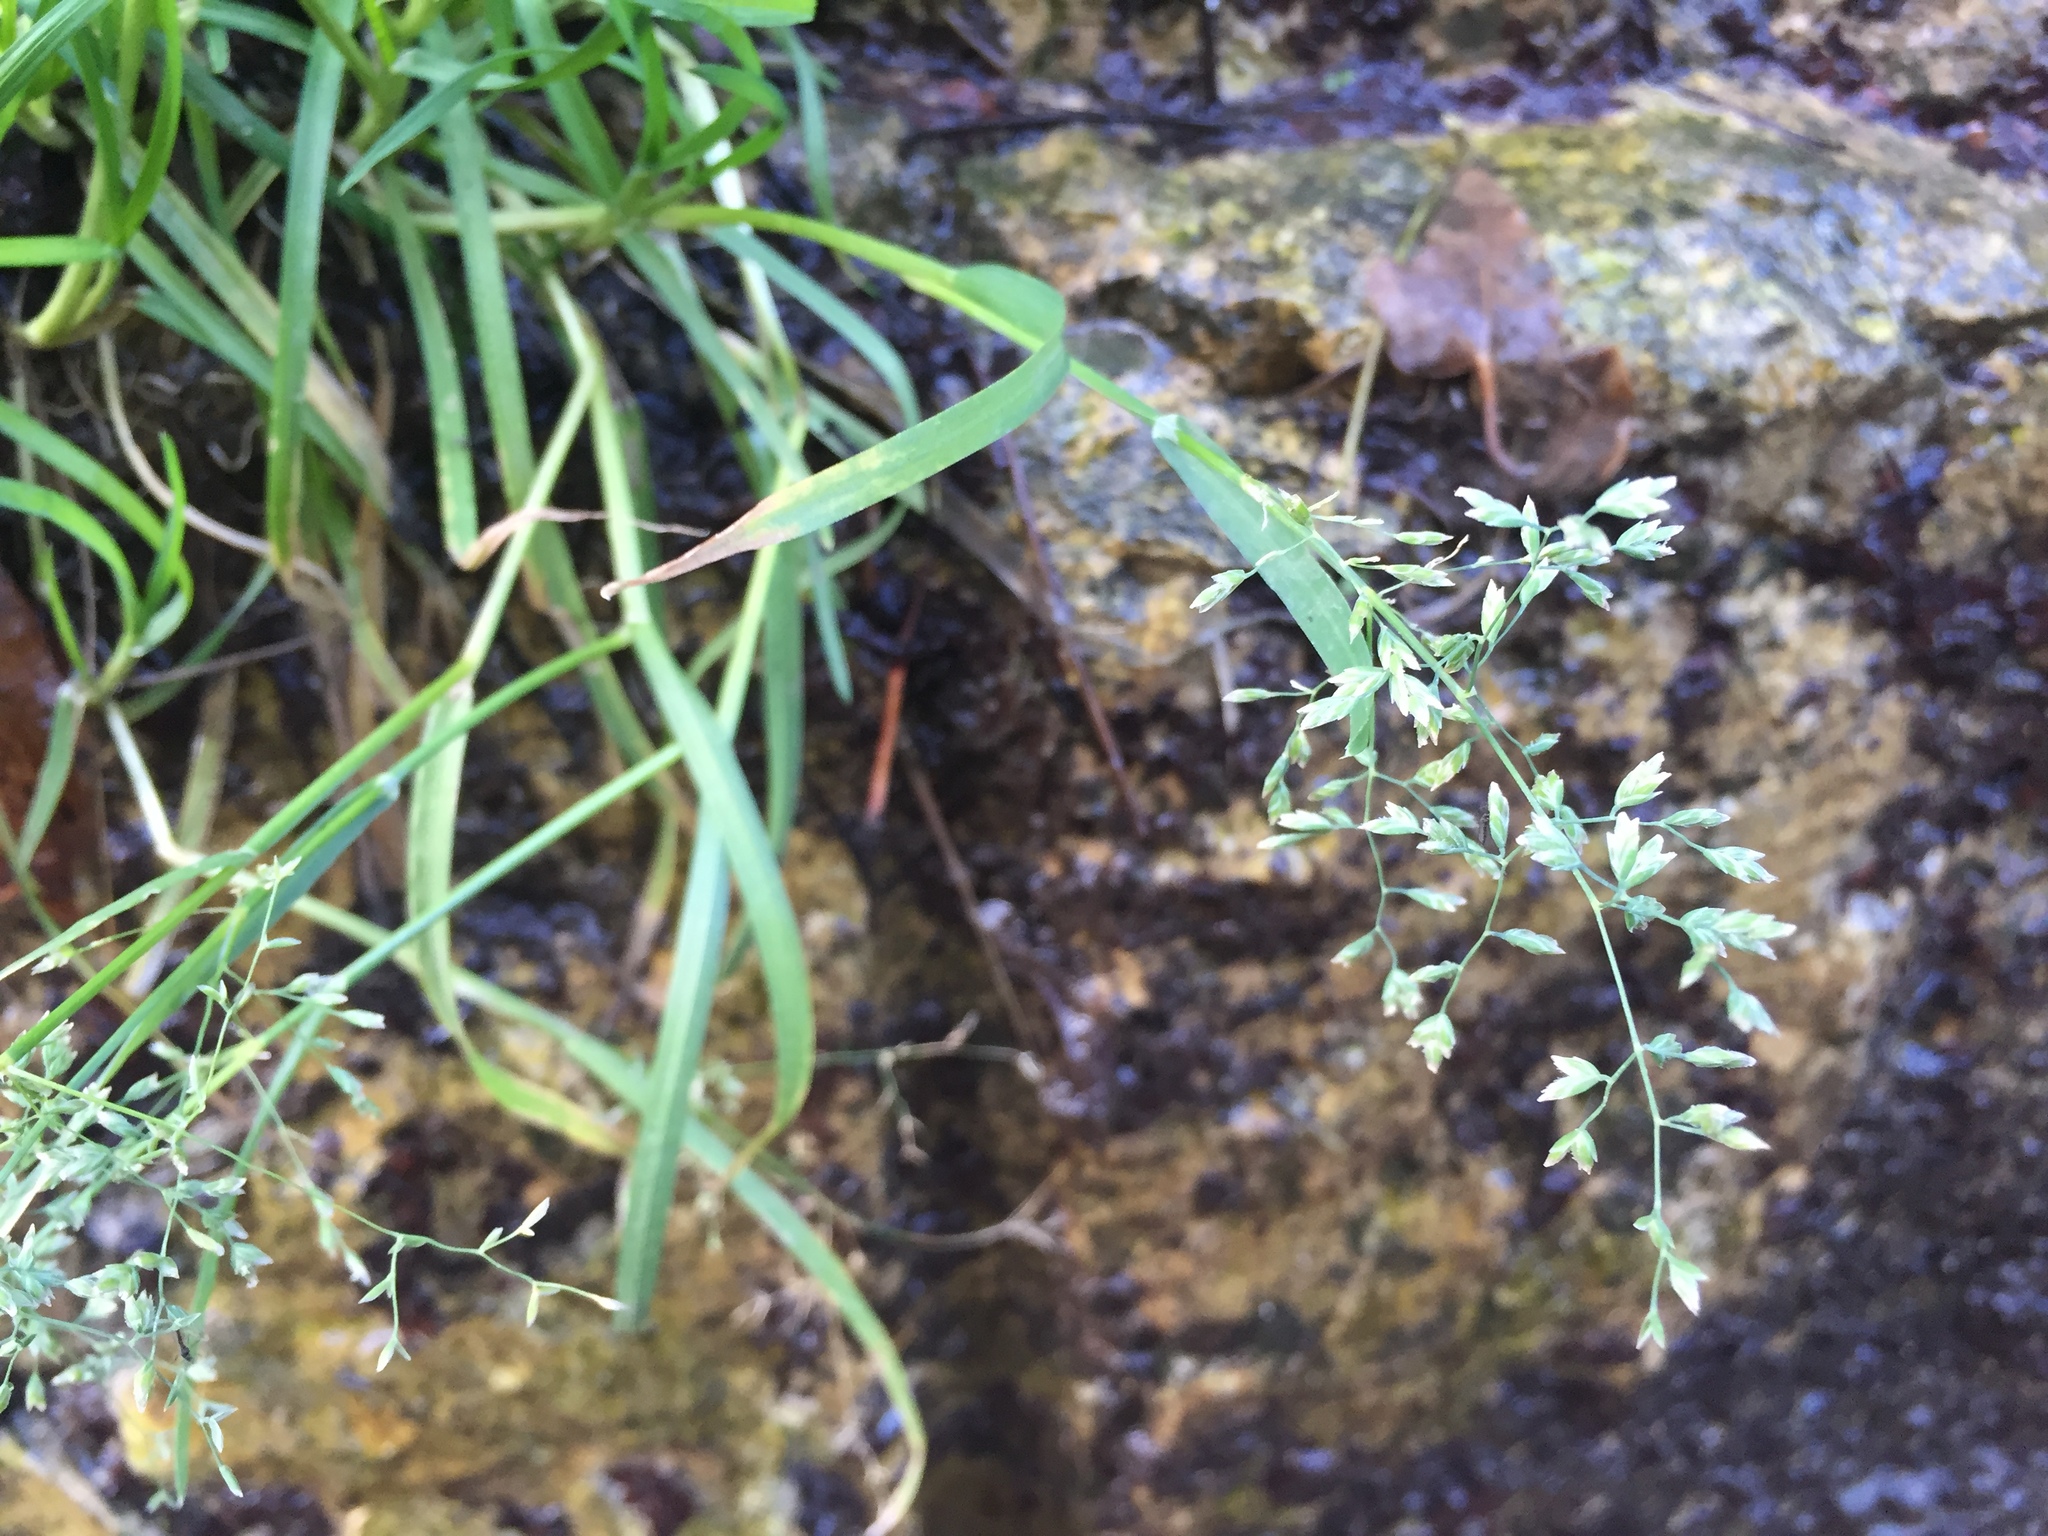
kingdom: Plantae
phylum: Tracheophyta
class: Liliopsida
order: Poales
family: Poaceae
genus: Poa
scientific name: Poa annua
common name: Annual bluegrass
